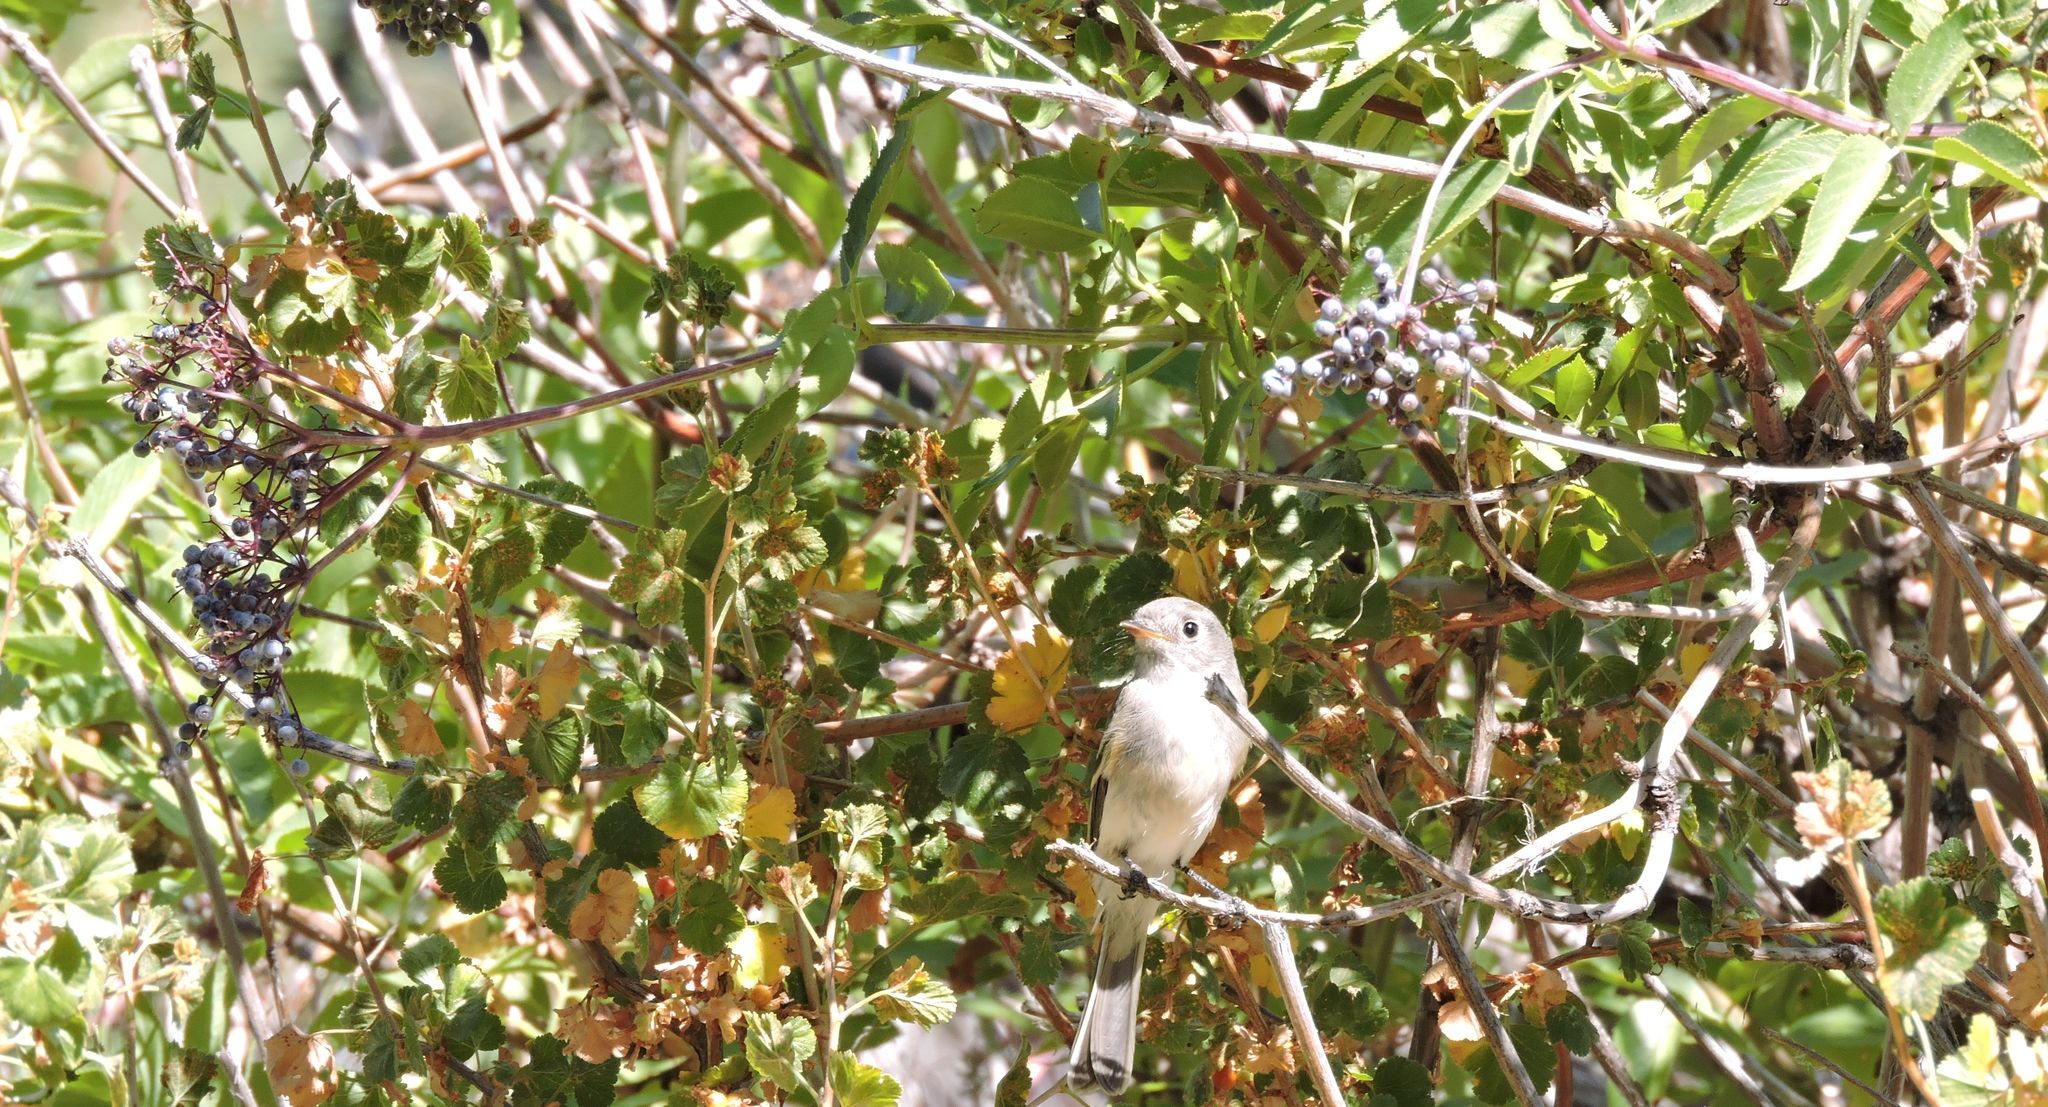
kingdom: Plantae
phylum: Tracheophyta
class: Magnoliopsida
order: Dipsacales
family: Viburnaceae
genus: Sambucus
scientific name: Sambucus cerulea
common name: Blue elder
